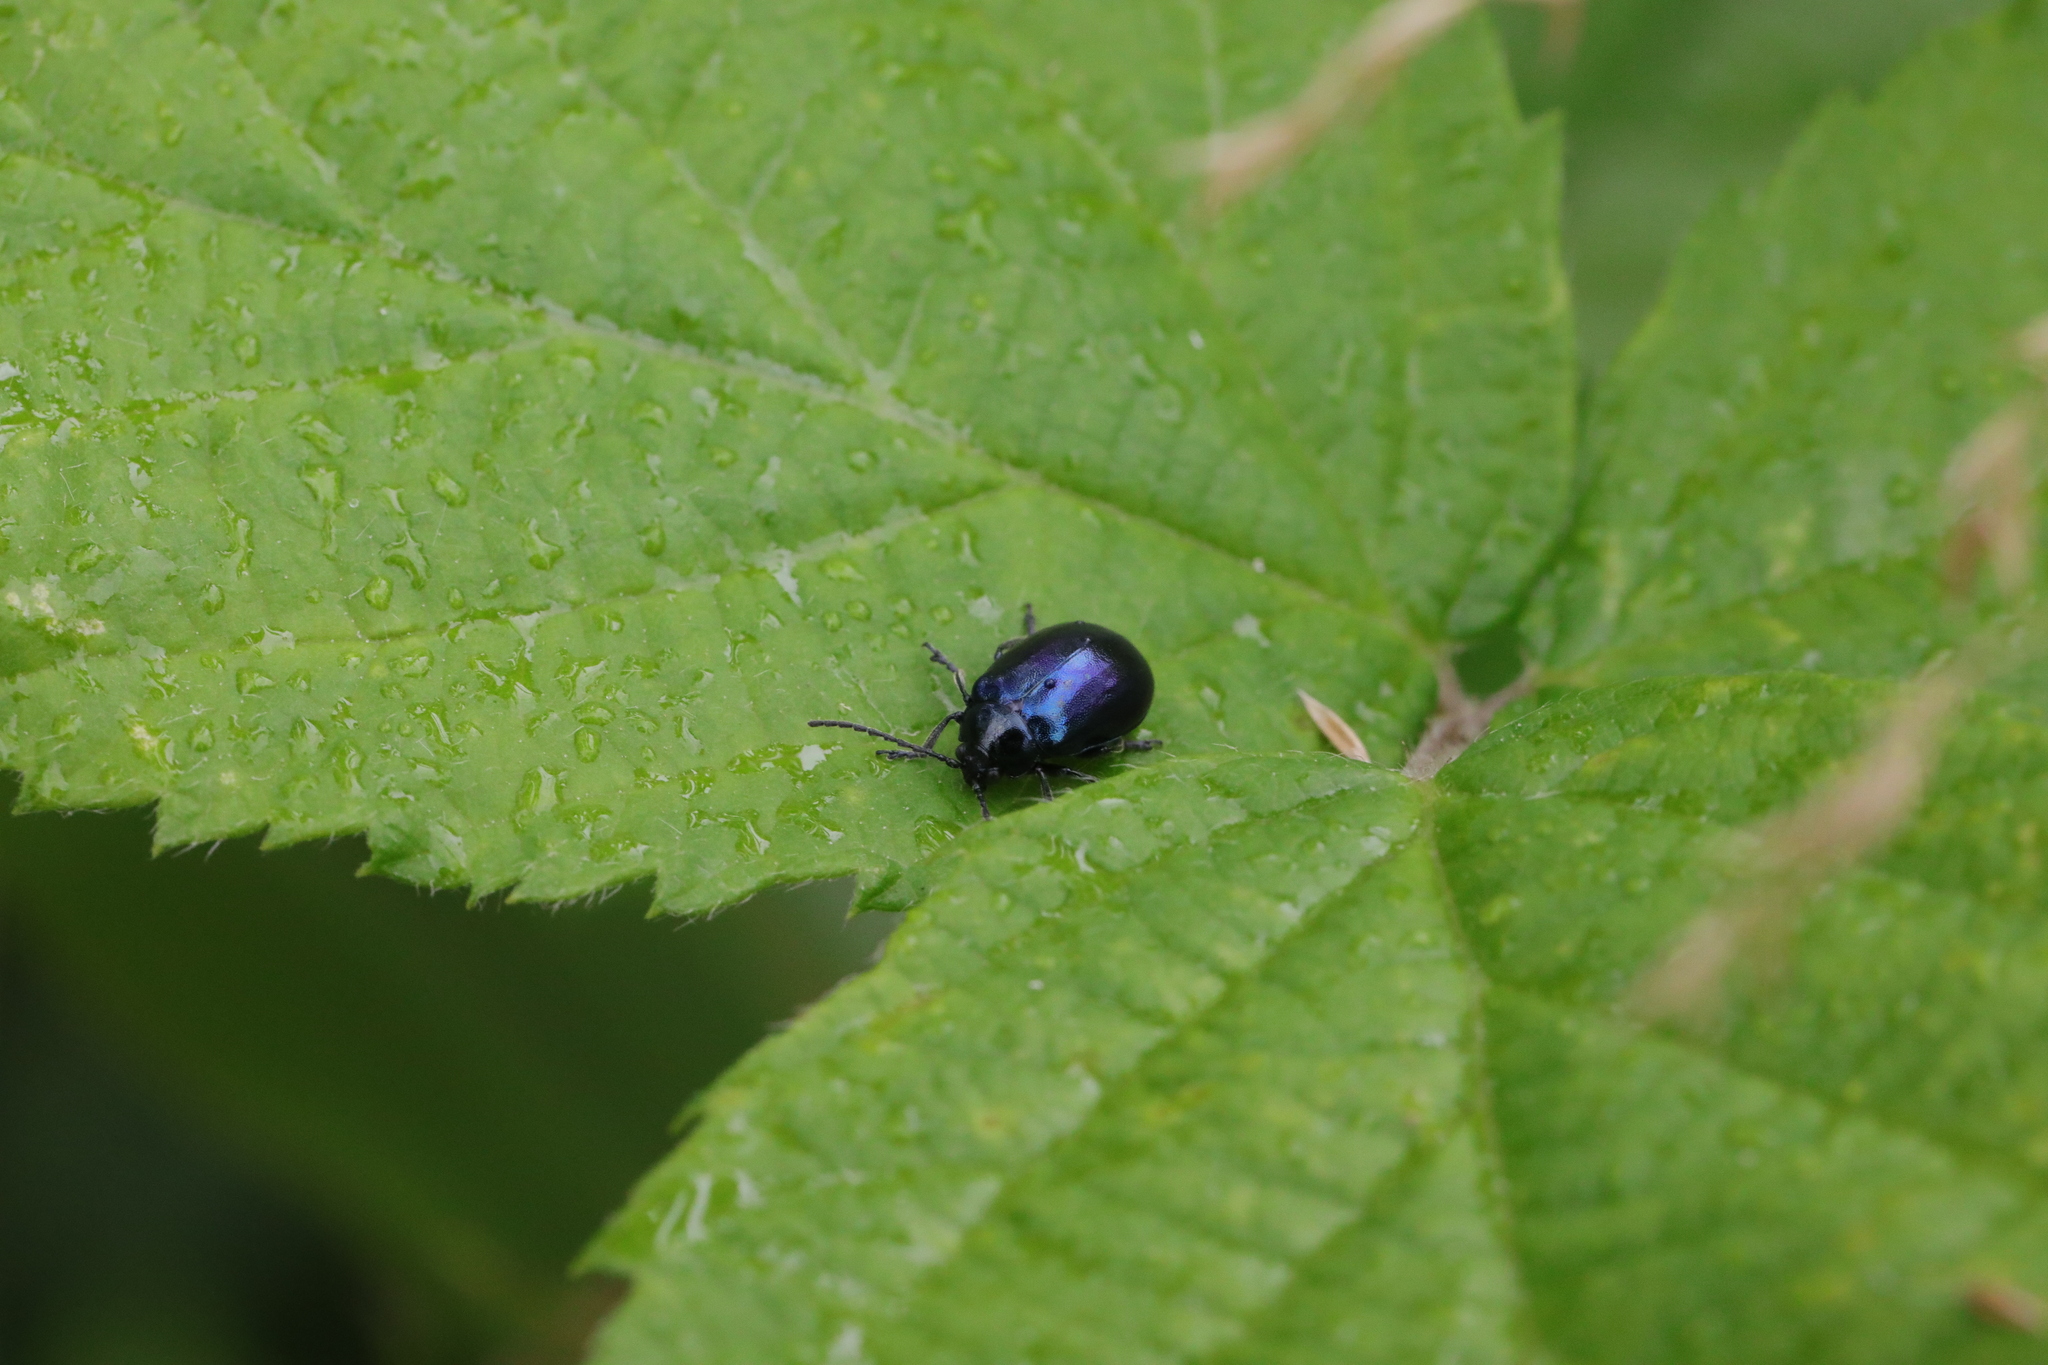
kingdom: Animalia
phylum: Arthropoda
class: Insecta
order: Coleoptera
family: Chrysomelidae
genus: Agelastica
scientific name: Agelastica alni
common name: Alder leaf beetle
